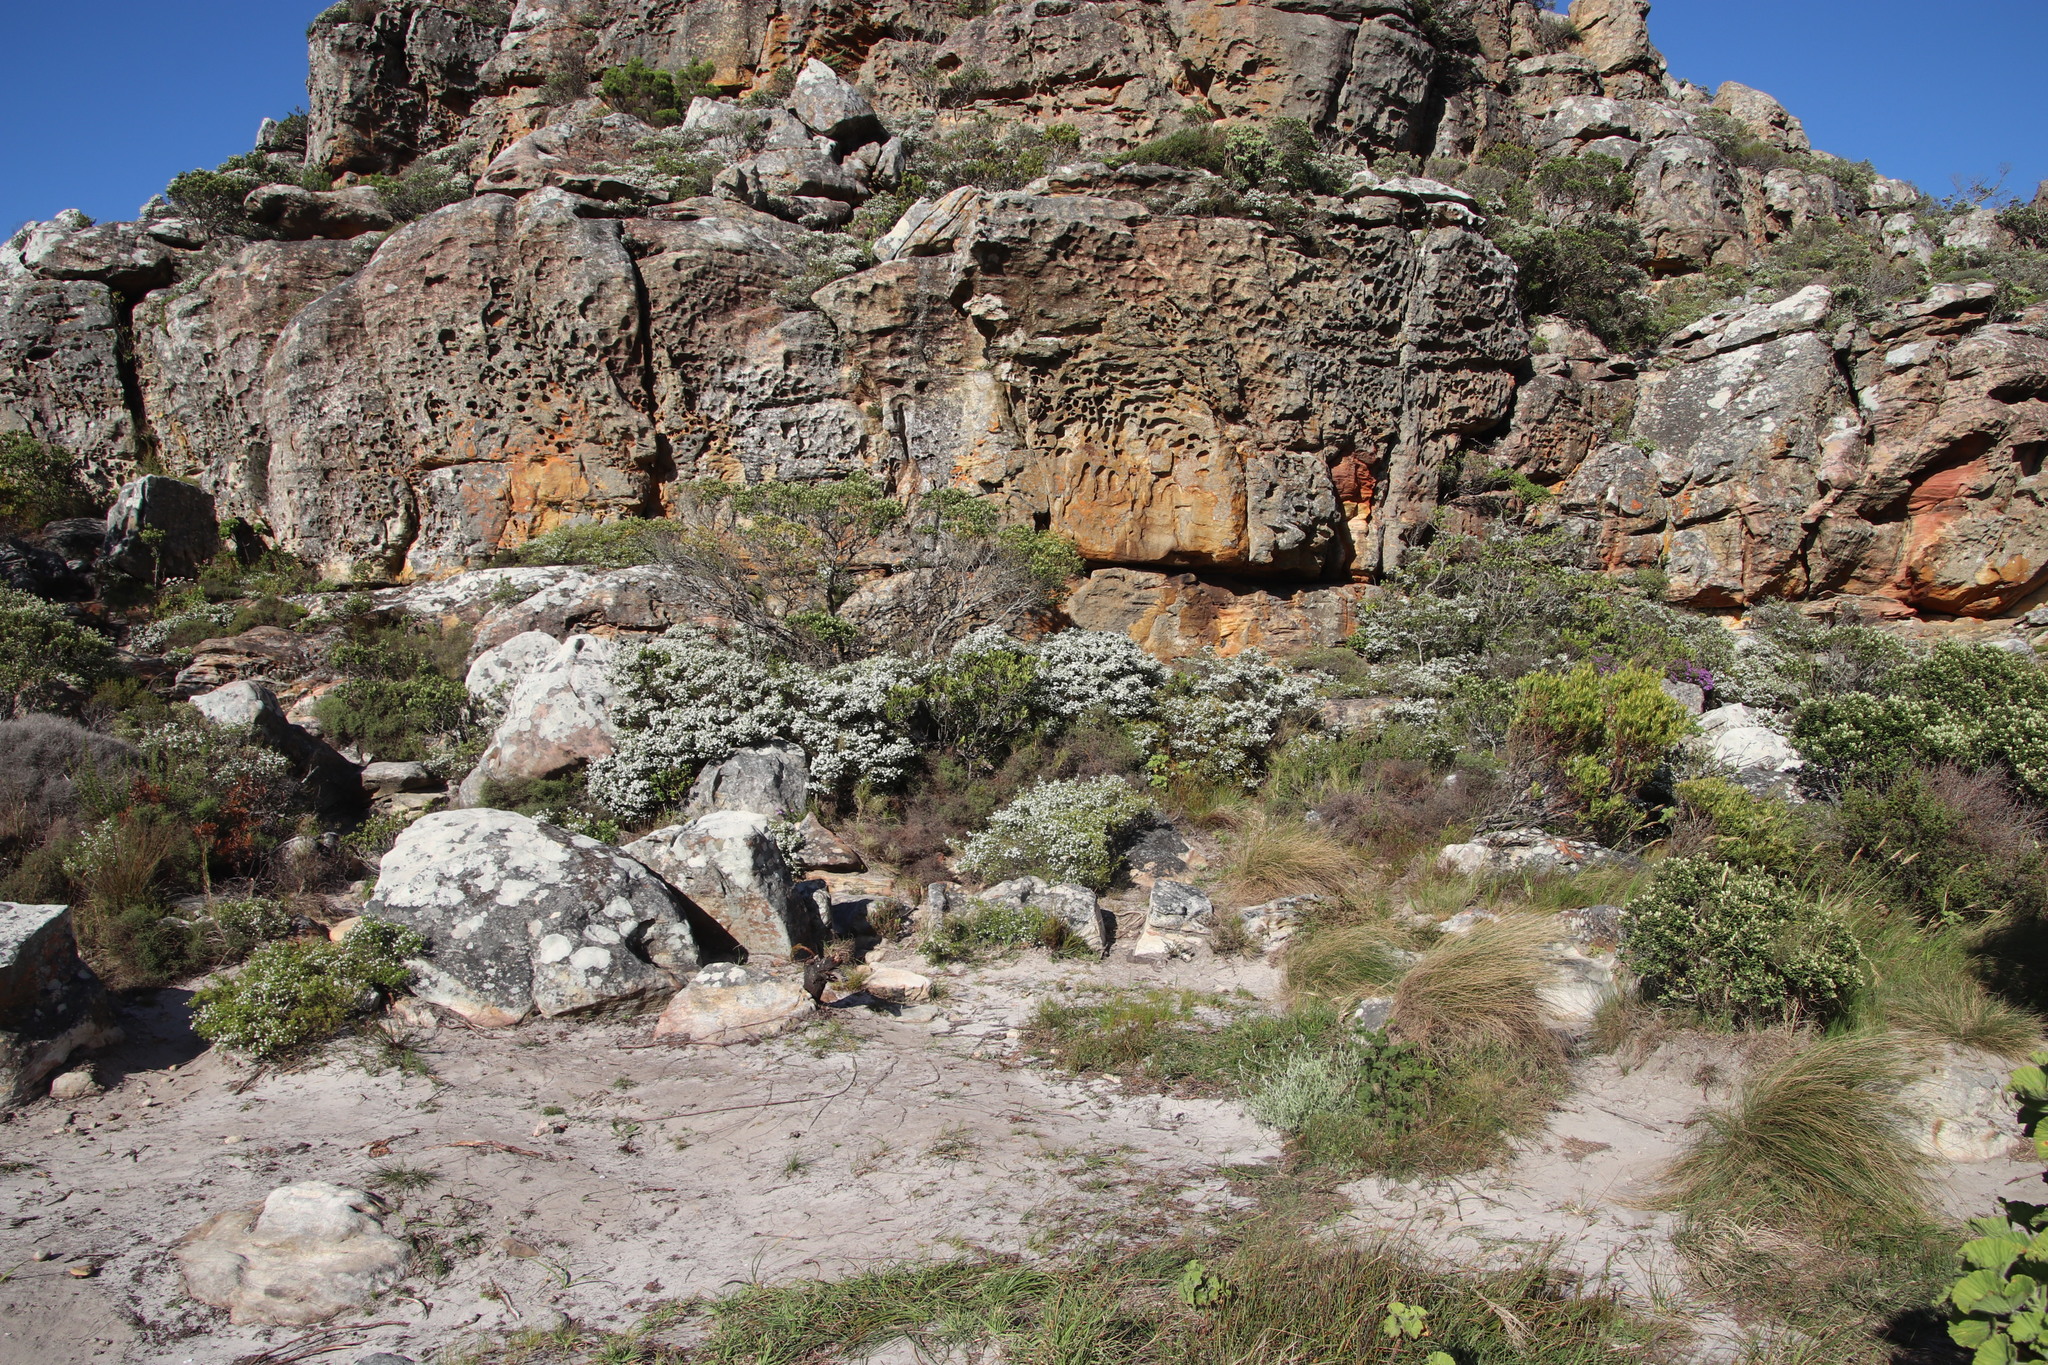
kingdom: Plantae
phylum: Tracheophyta
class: Magnoliopsida
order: Sapindales
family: Rutaceae
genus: Coleonema
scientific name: Coleonema album
